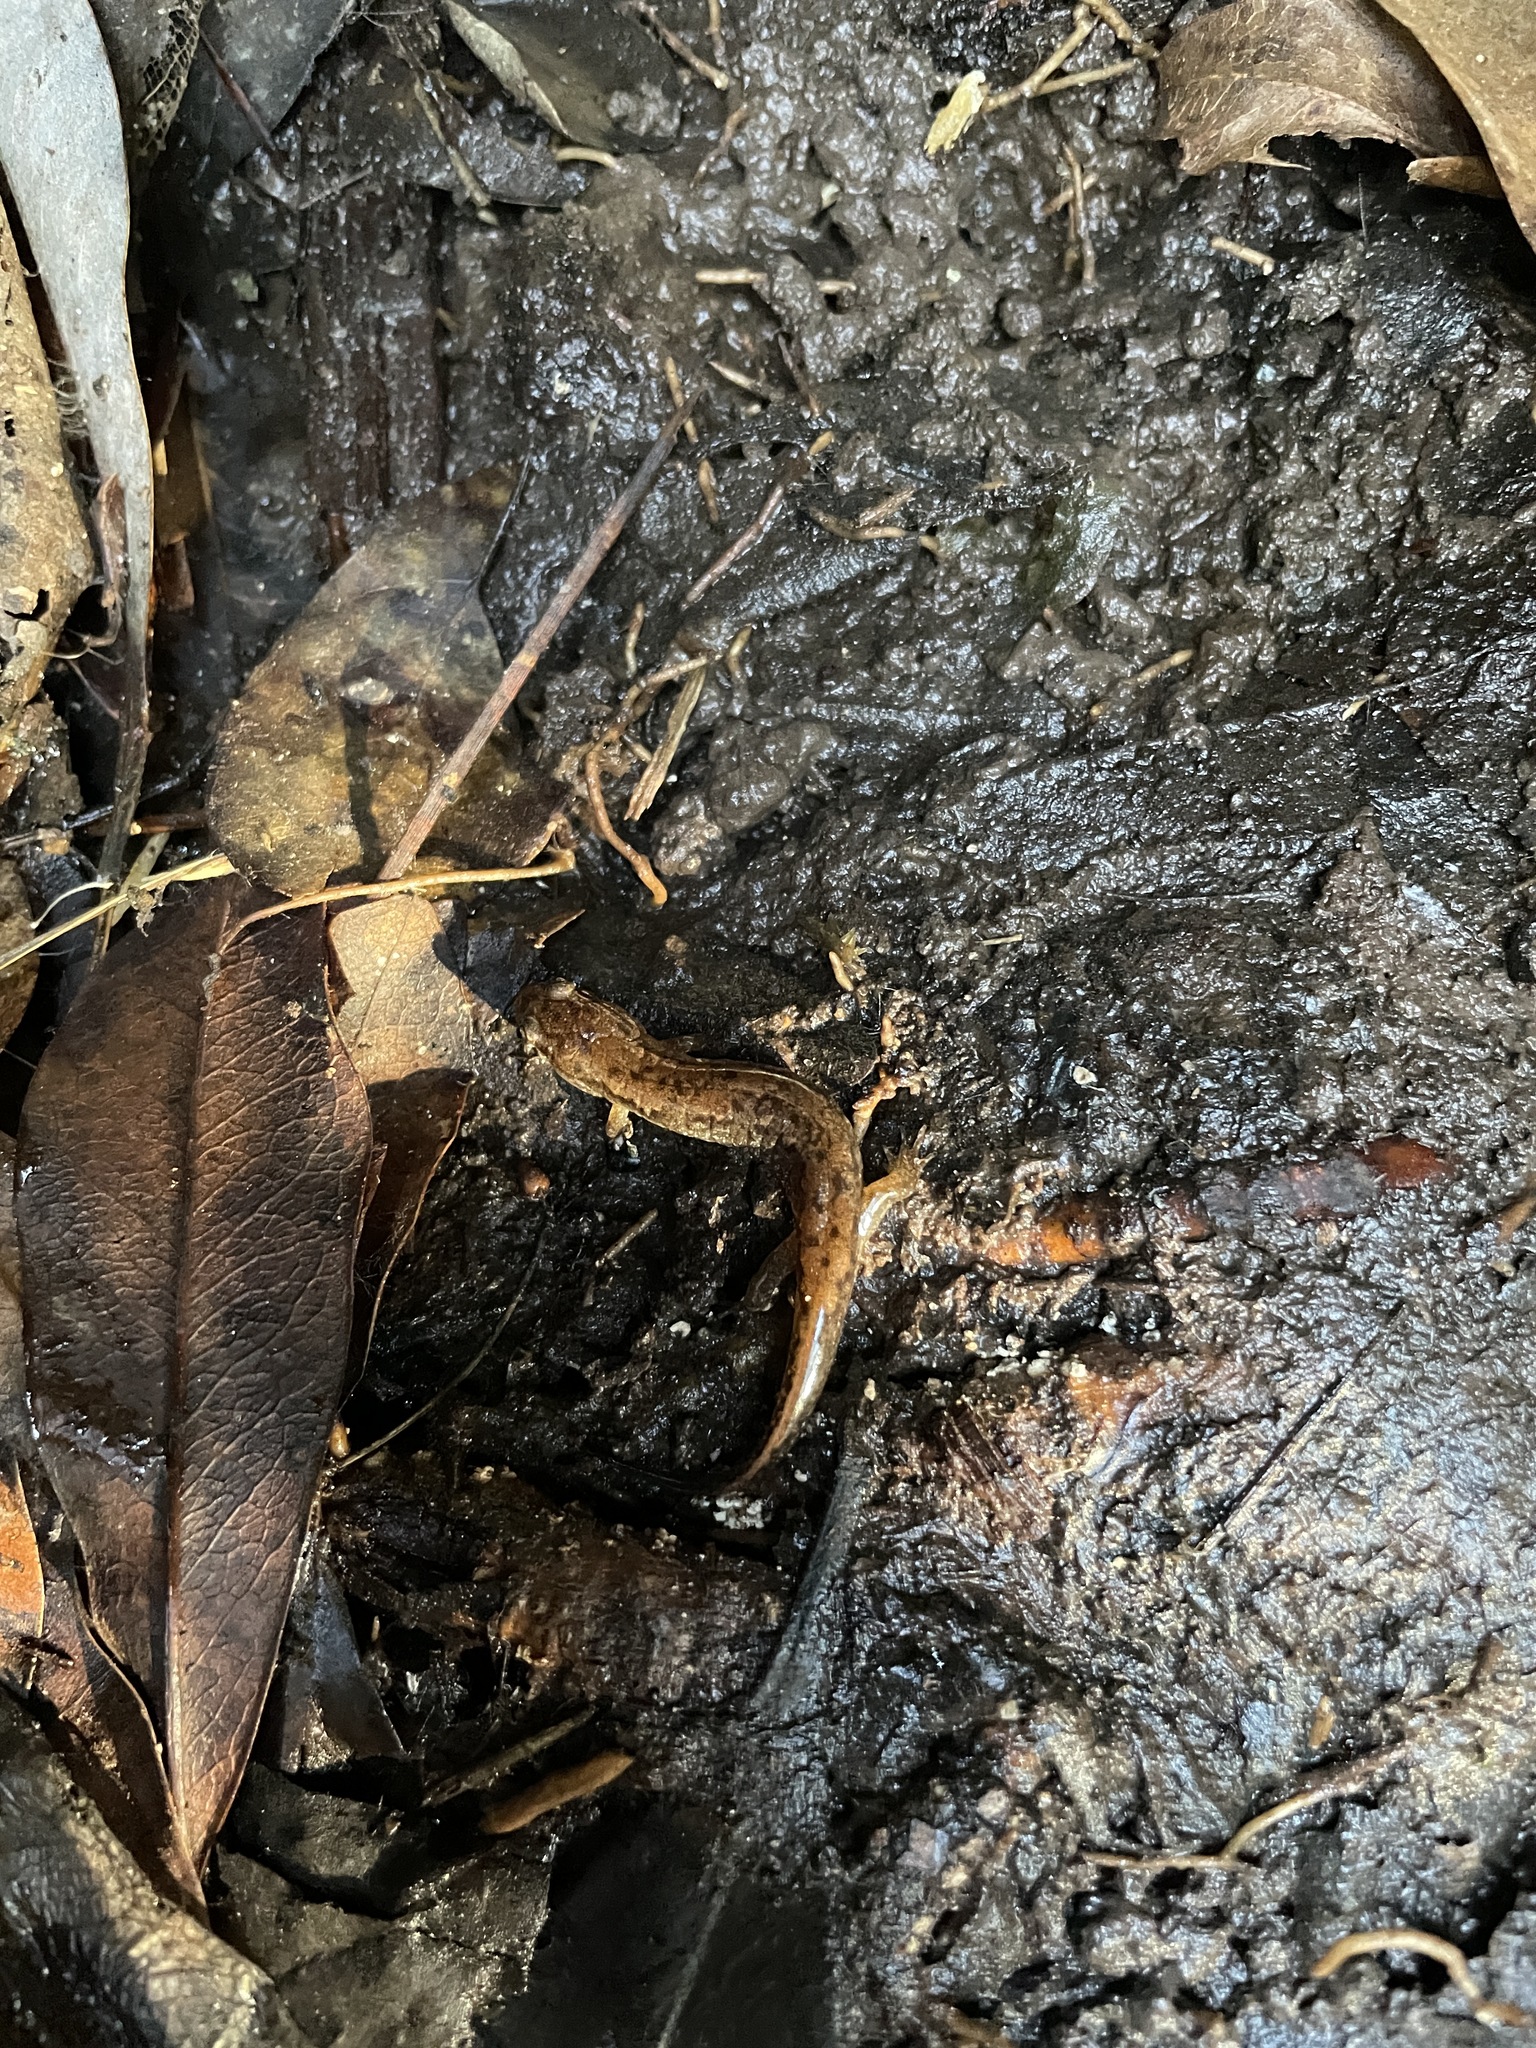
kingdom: Animalia
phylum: Chordata
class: Amphibia
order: Caudata
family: Plethodontidae
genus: Desmognathus
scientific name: Desmognathus conanti
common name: Spotted dusky salamander
